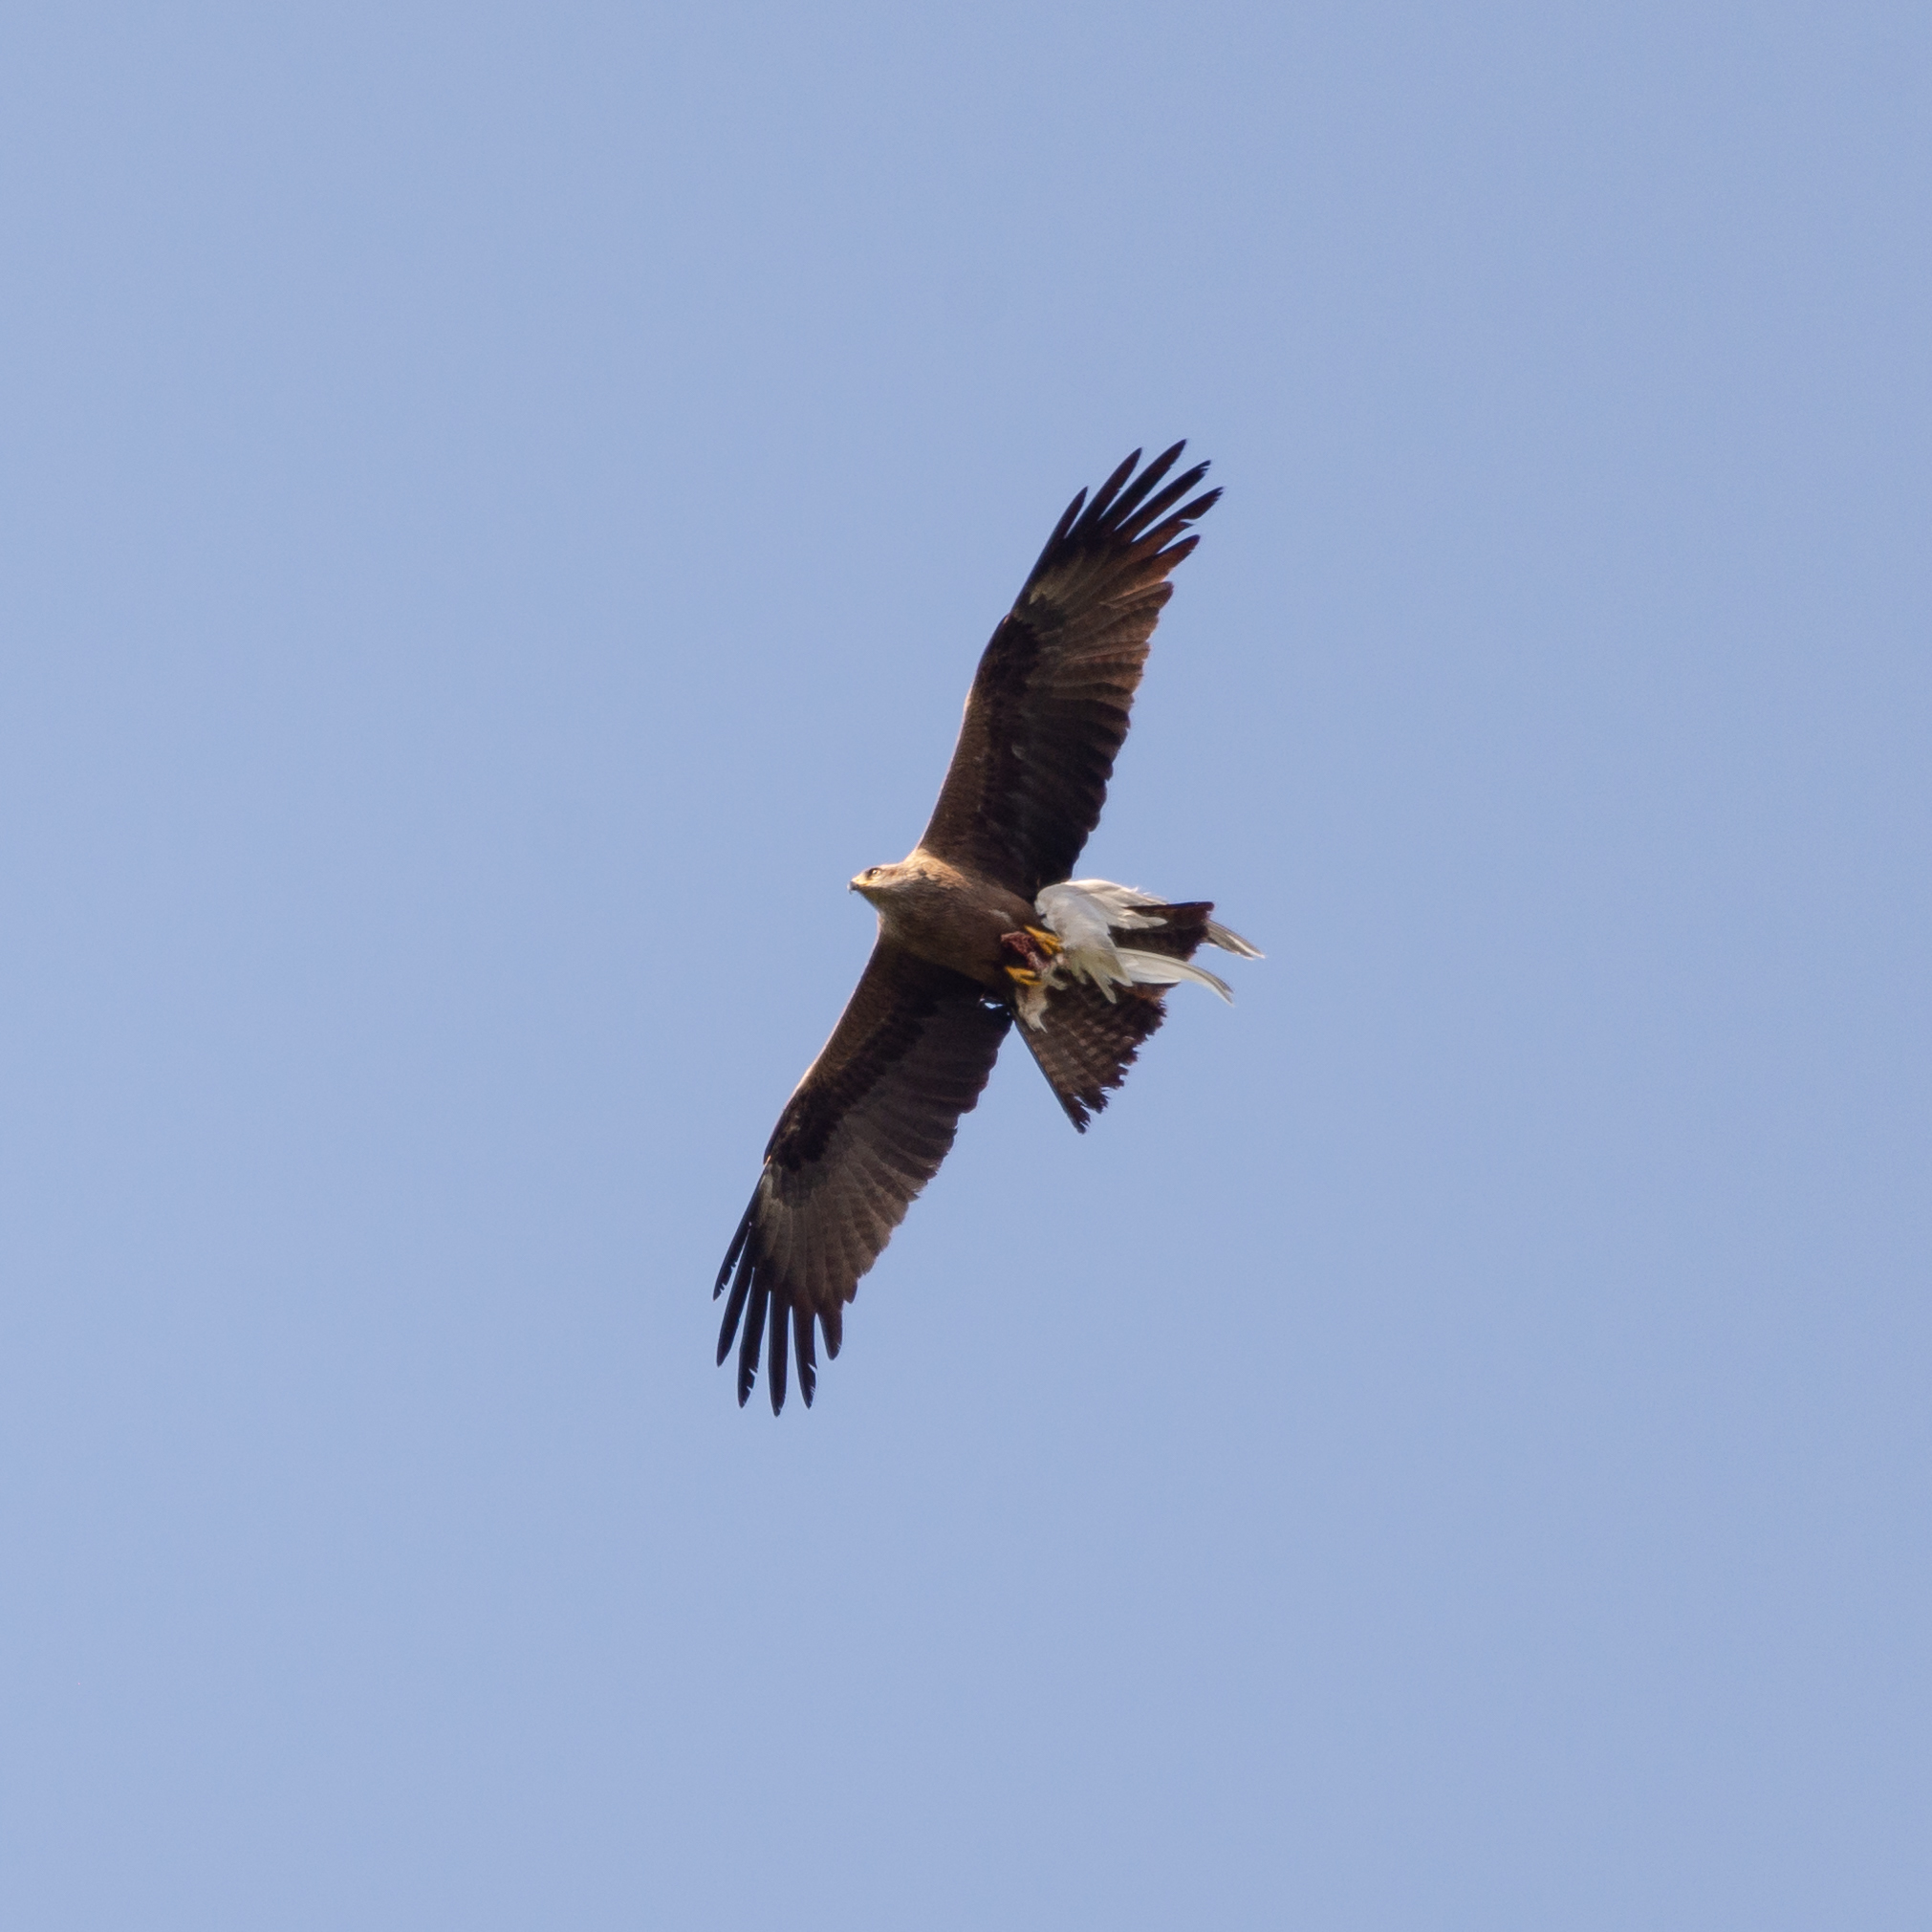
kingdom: Animalia
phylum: Chordata
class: Aves
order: Accipitriformes
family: Accipitridae
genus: Milvus
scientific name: Milvus migrans
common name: Black kite
